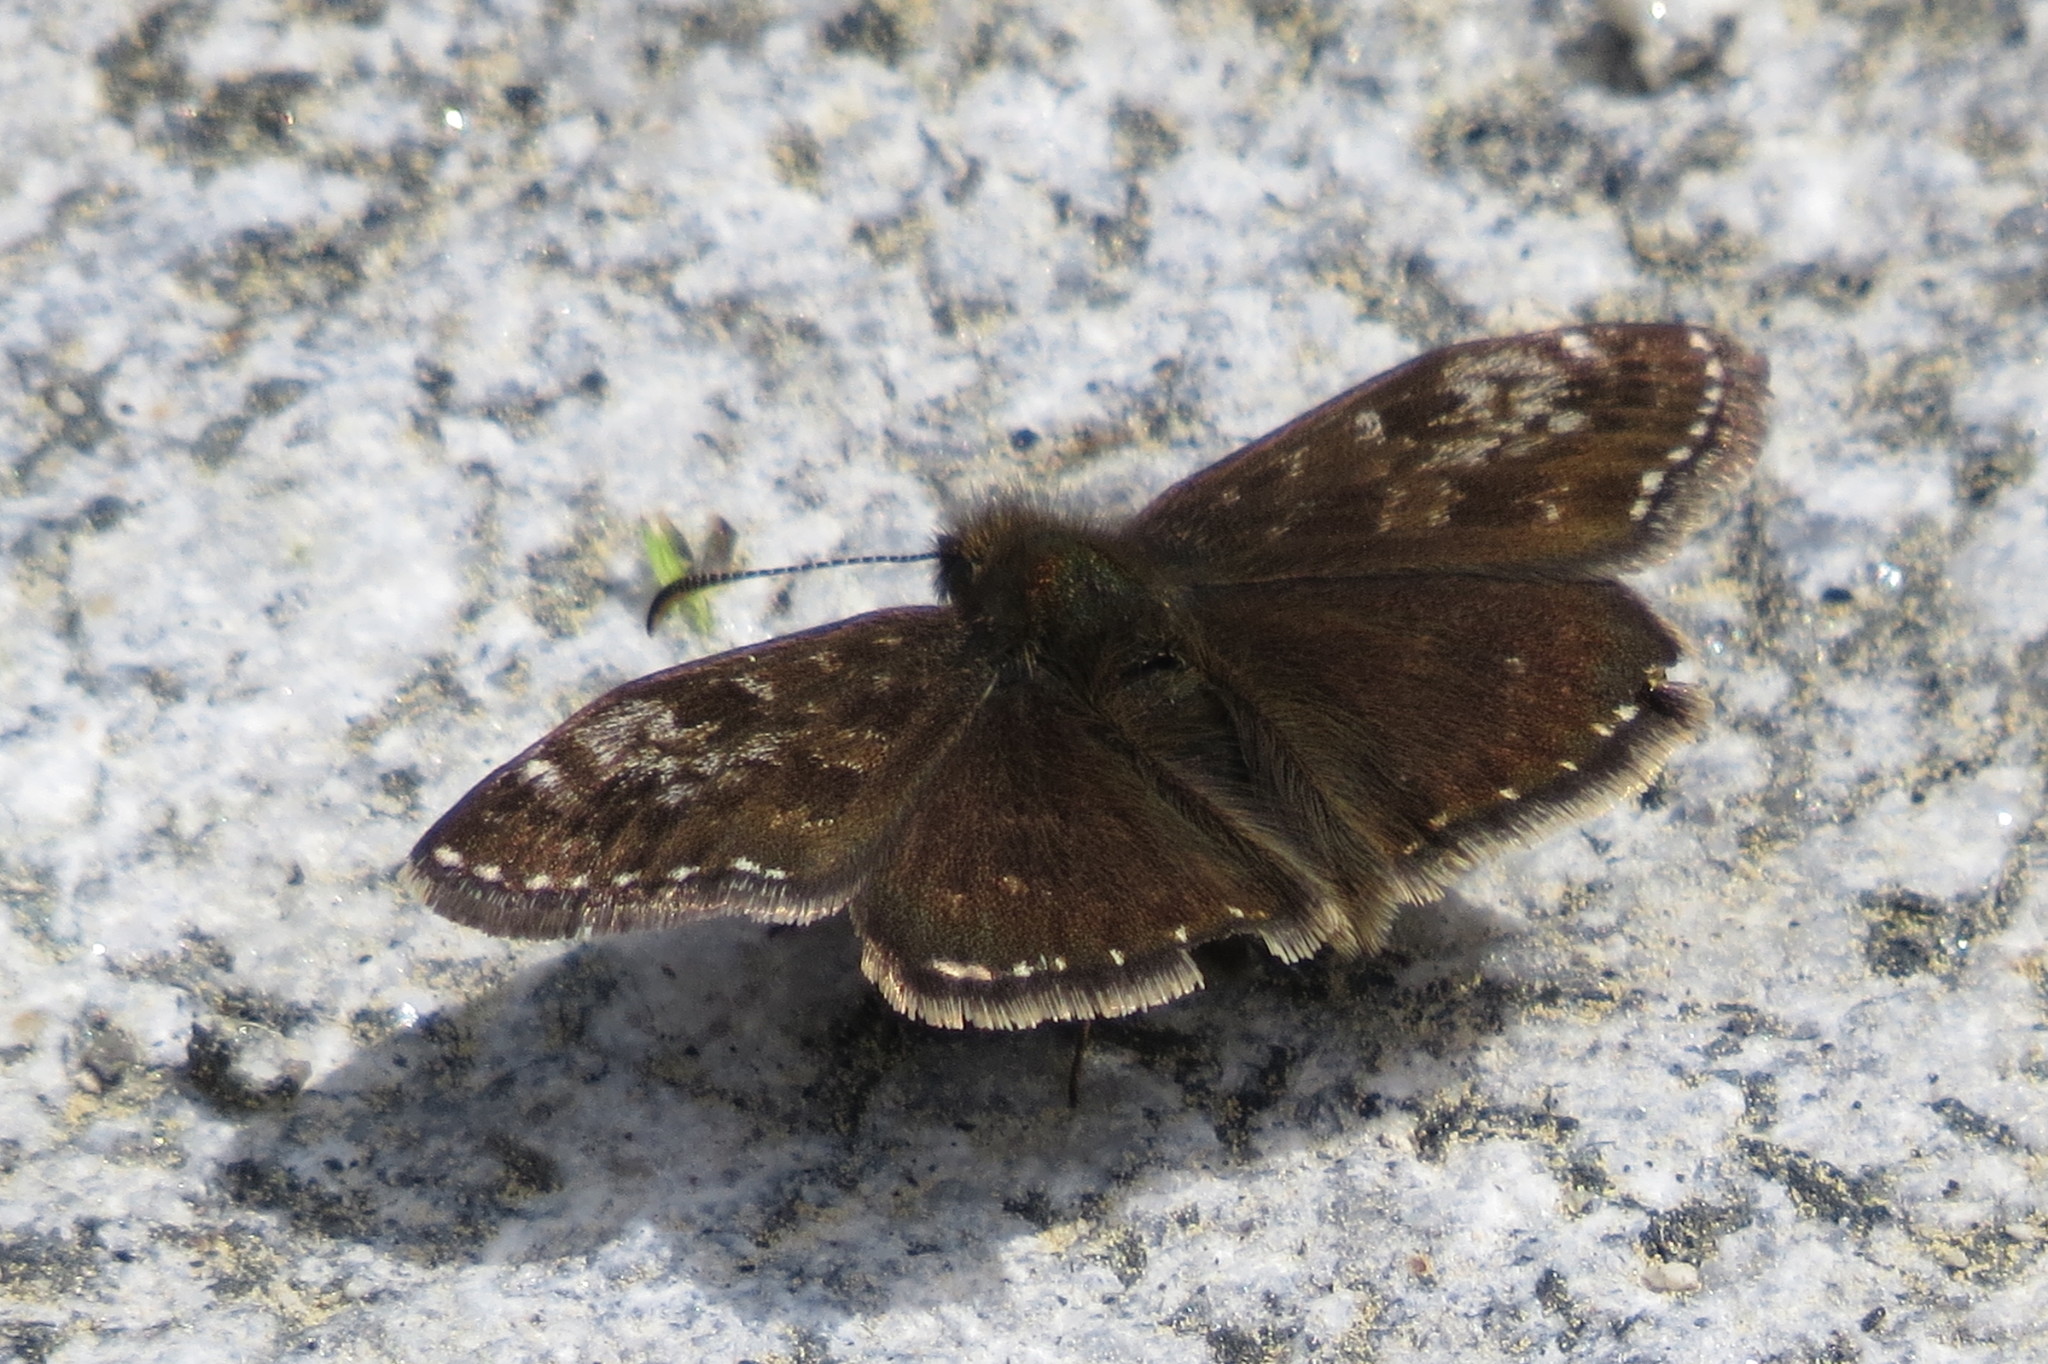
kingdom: Animalia
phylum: Arthropoda
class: Insecta
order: Lepidoptera
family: Hesperiidae
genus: Erynnis
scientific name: Erynnis tages
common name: Dingy skipper
